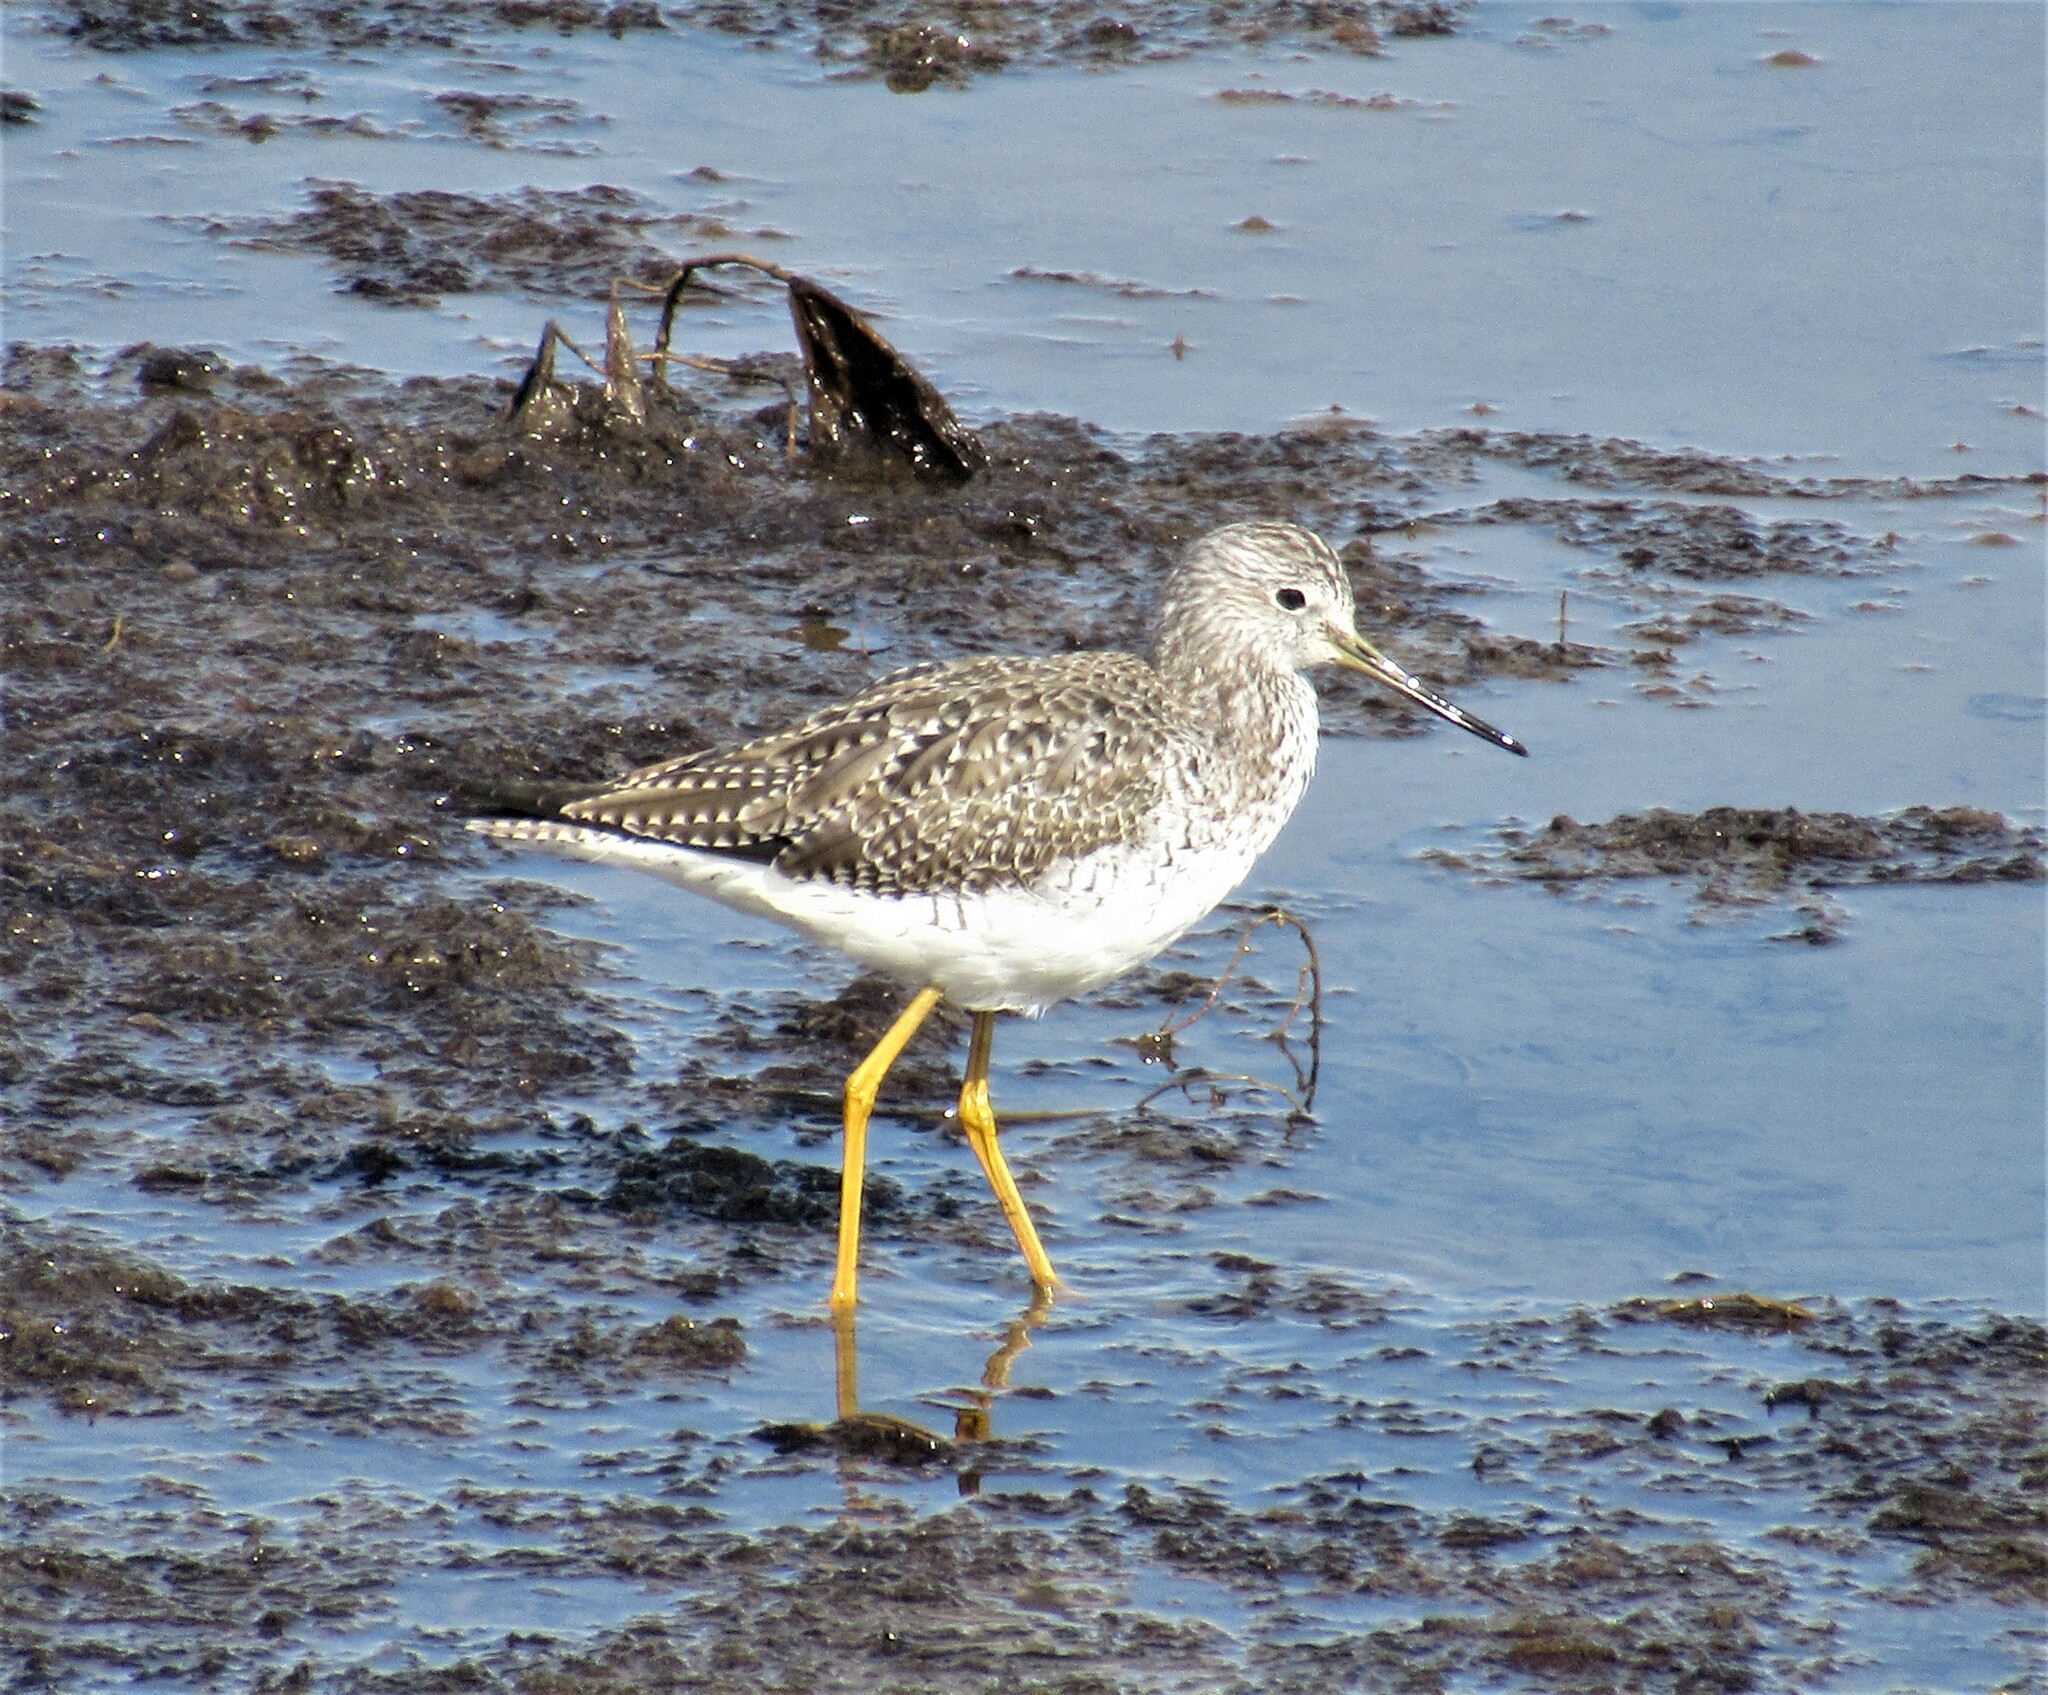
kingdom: Animalia
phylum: Chordata
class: Aves
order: Charadriiformes
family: Scolopacidae
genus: Tringa
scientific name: Tringa melanoleuca
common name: Greater yellowlegs
